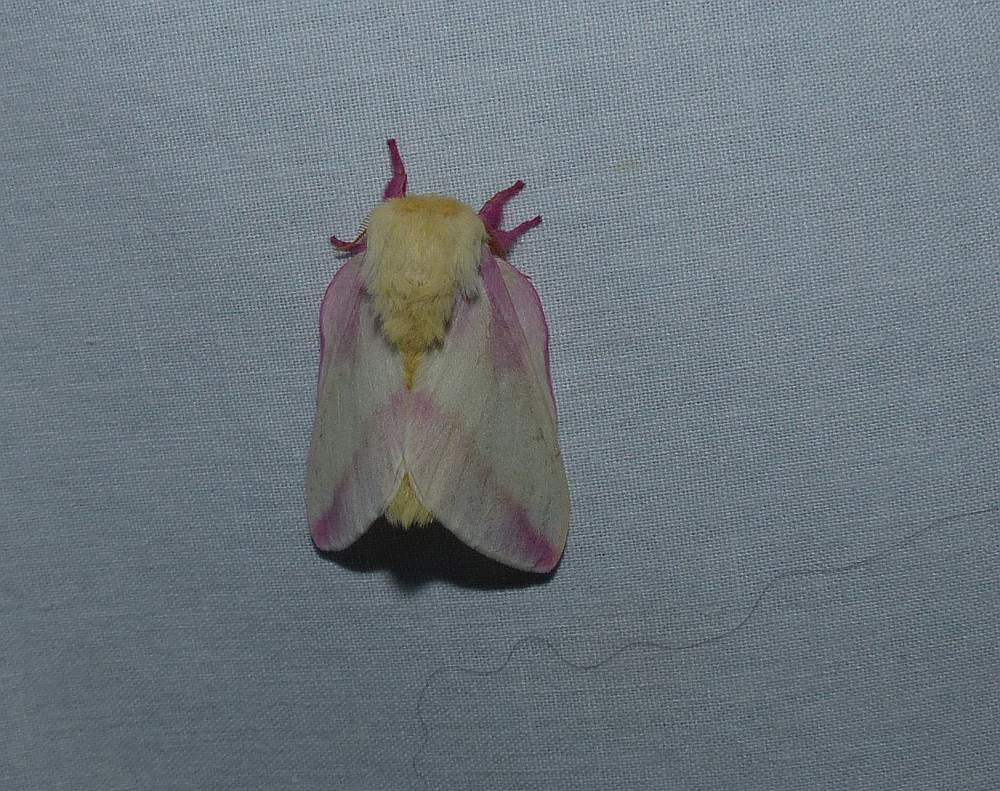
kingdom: Animalia
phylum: Arthropoda
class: Insecta
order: Lepidoptera
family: Saturniidae
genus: Dryocampa
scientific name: Dryocampa rubicunda
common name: Rosy maple moth
